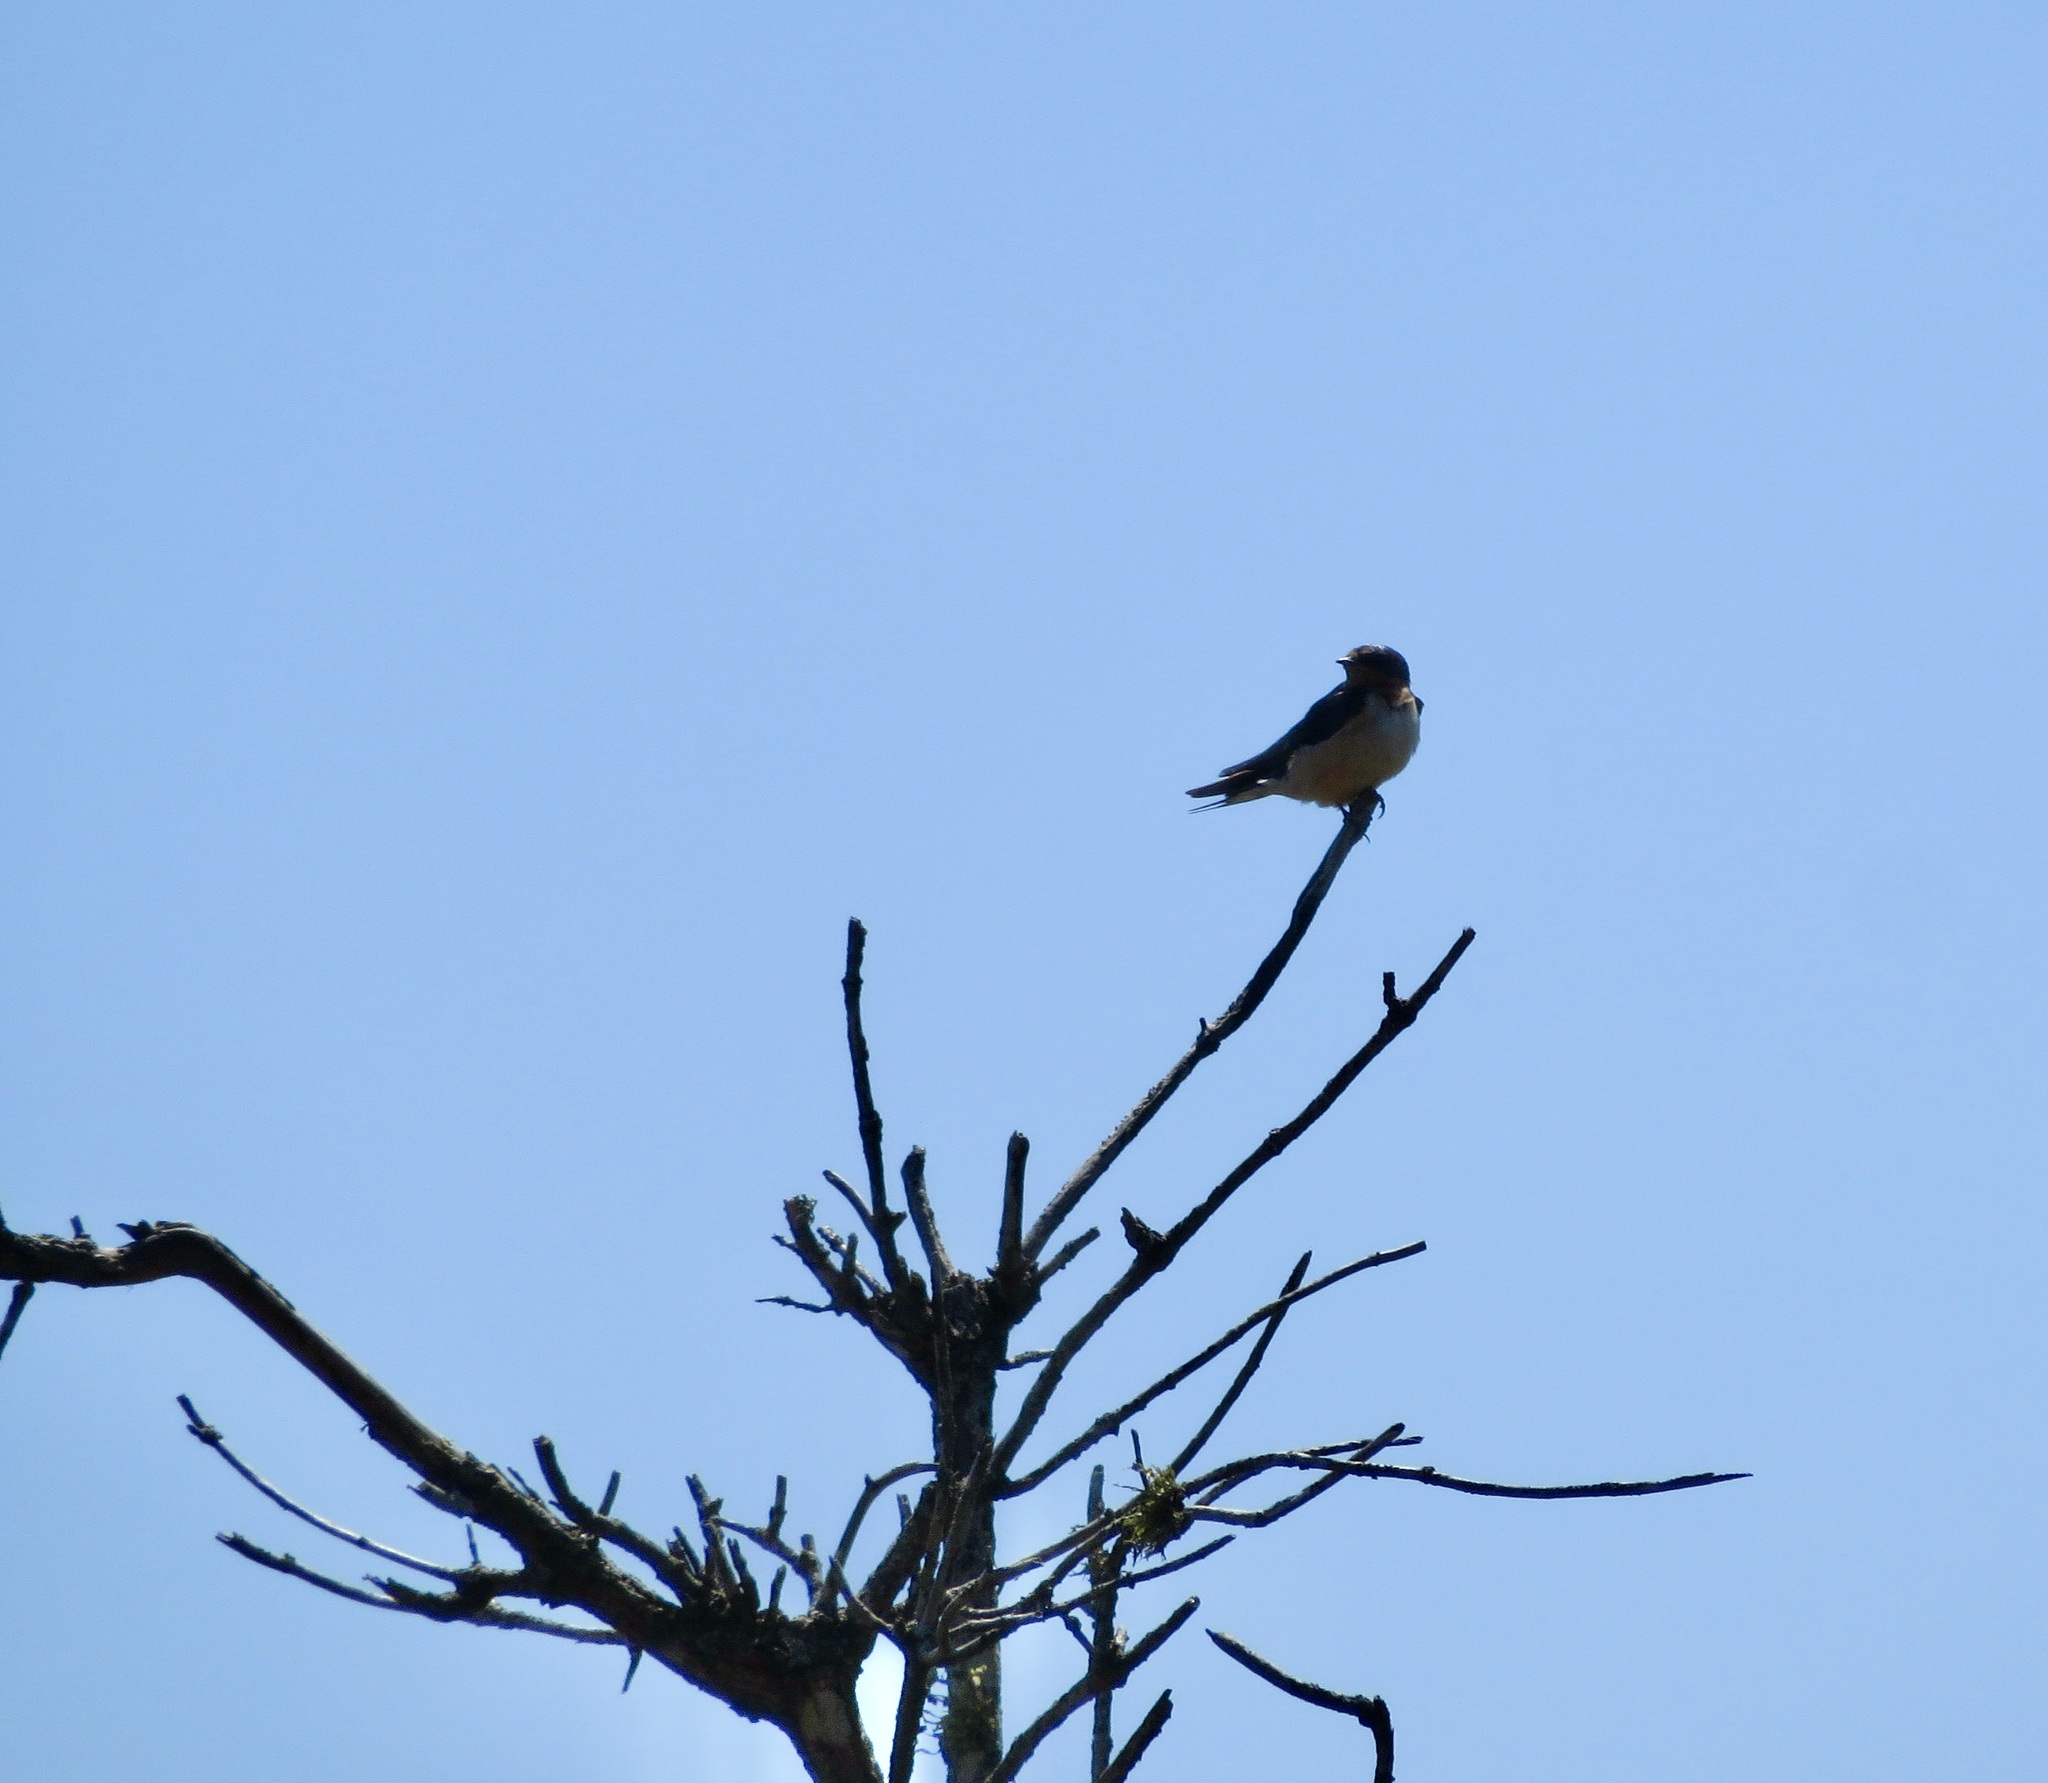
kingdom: Animalia
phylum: Chordata
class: Aves
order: Passeriformes
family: Hirundinidae
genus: Hirundo
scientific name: Hirundo rustica
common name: Barn swallow
